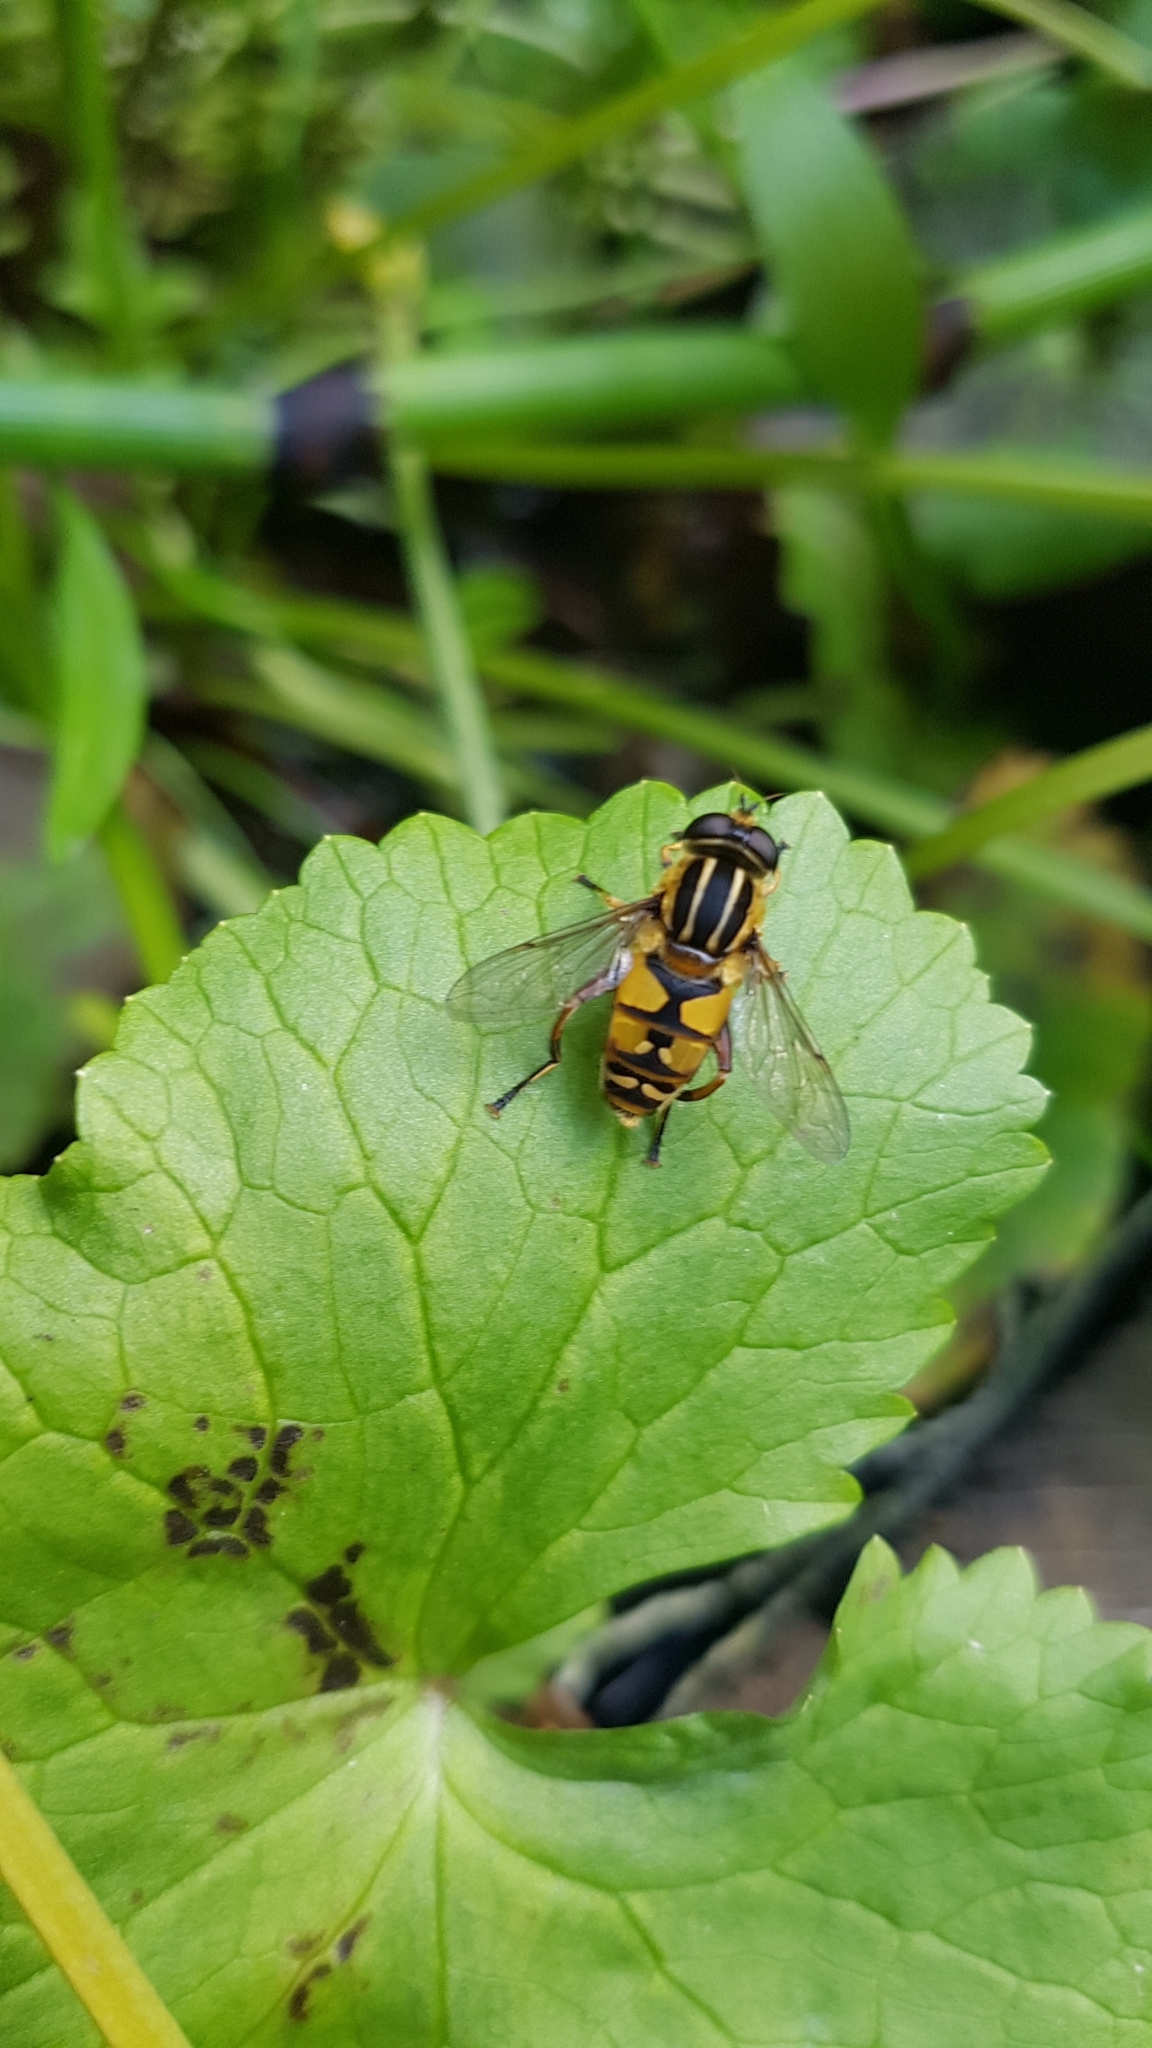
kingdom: Animalia
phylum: Arthropoda
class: Insecta
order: Diptera
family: Syrphidae
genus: Helophilus
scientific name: Helophilus pendulus
